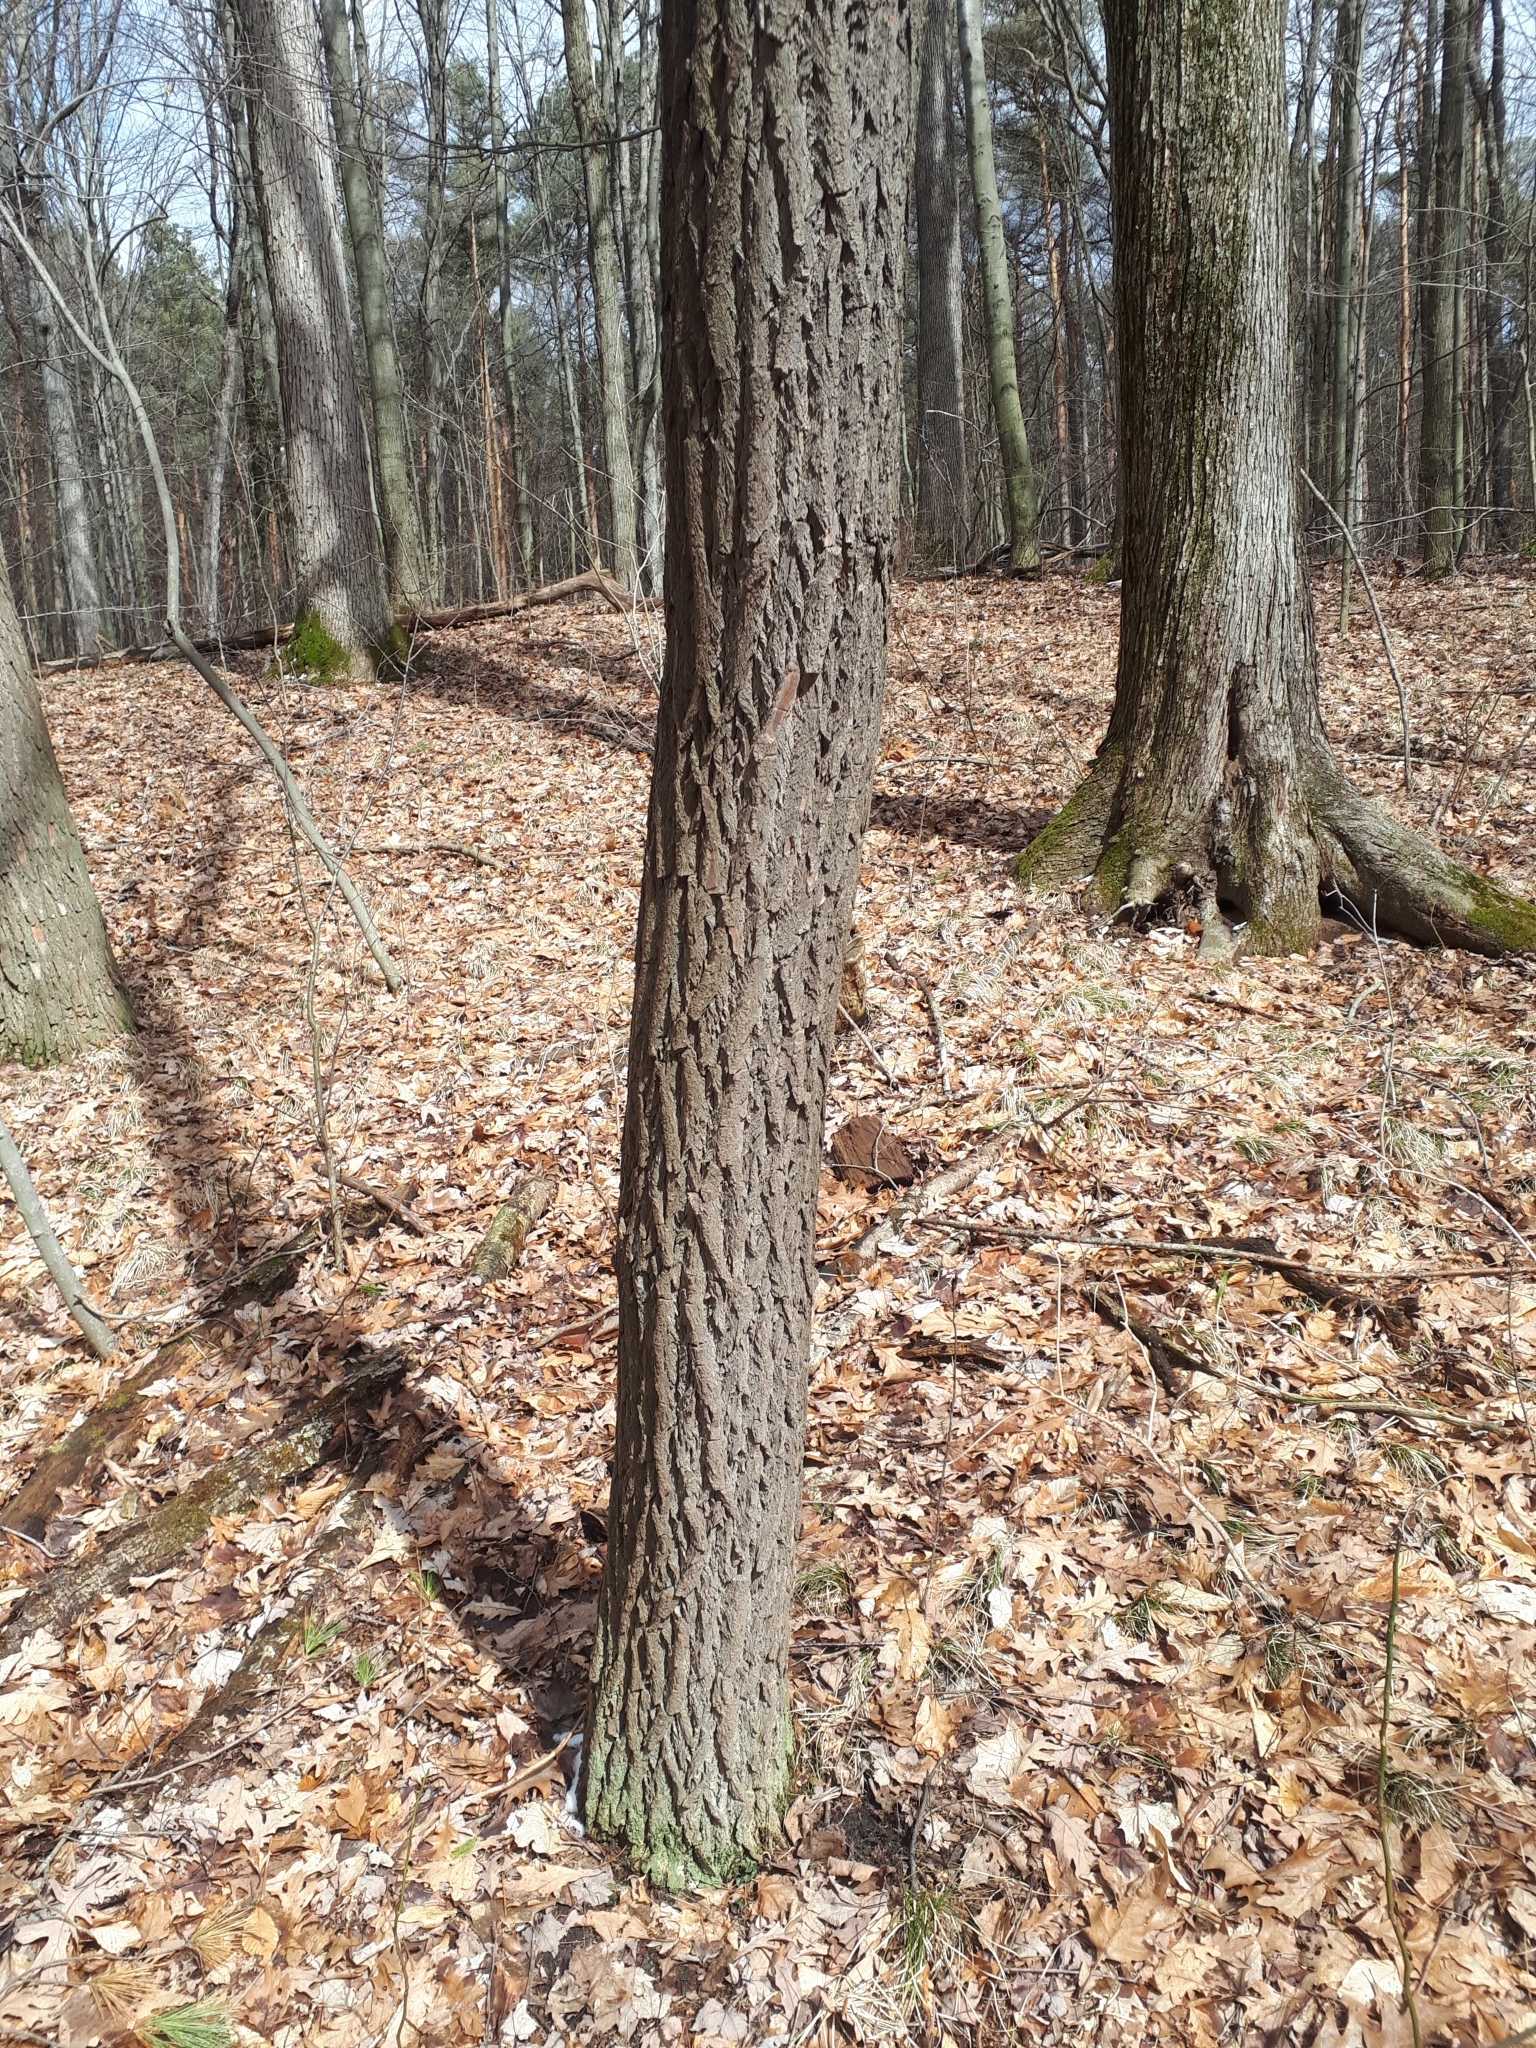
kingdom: Plantae
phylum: Tracheophyta
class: Magnoliopsida
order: Laurales
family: Lauraceae
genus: Sassafras
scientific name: Sassafras albidum
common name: Sassafras
